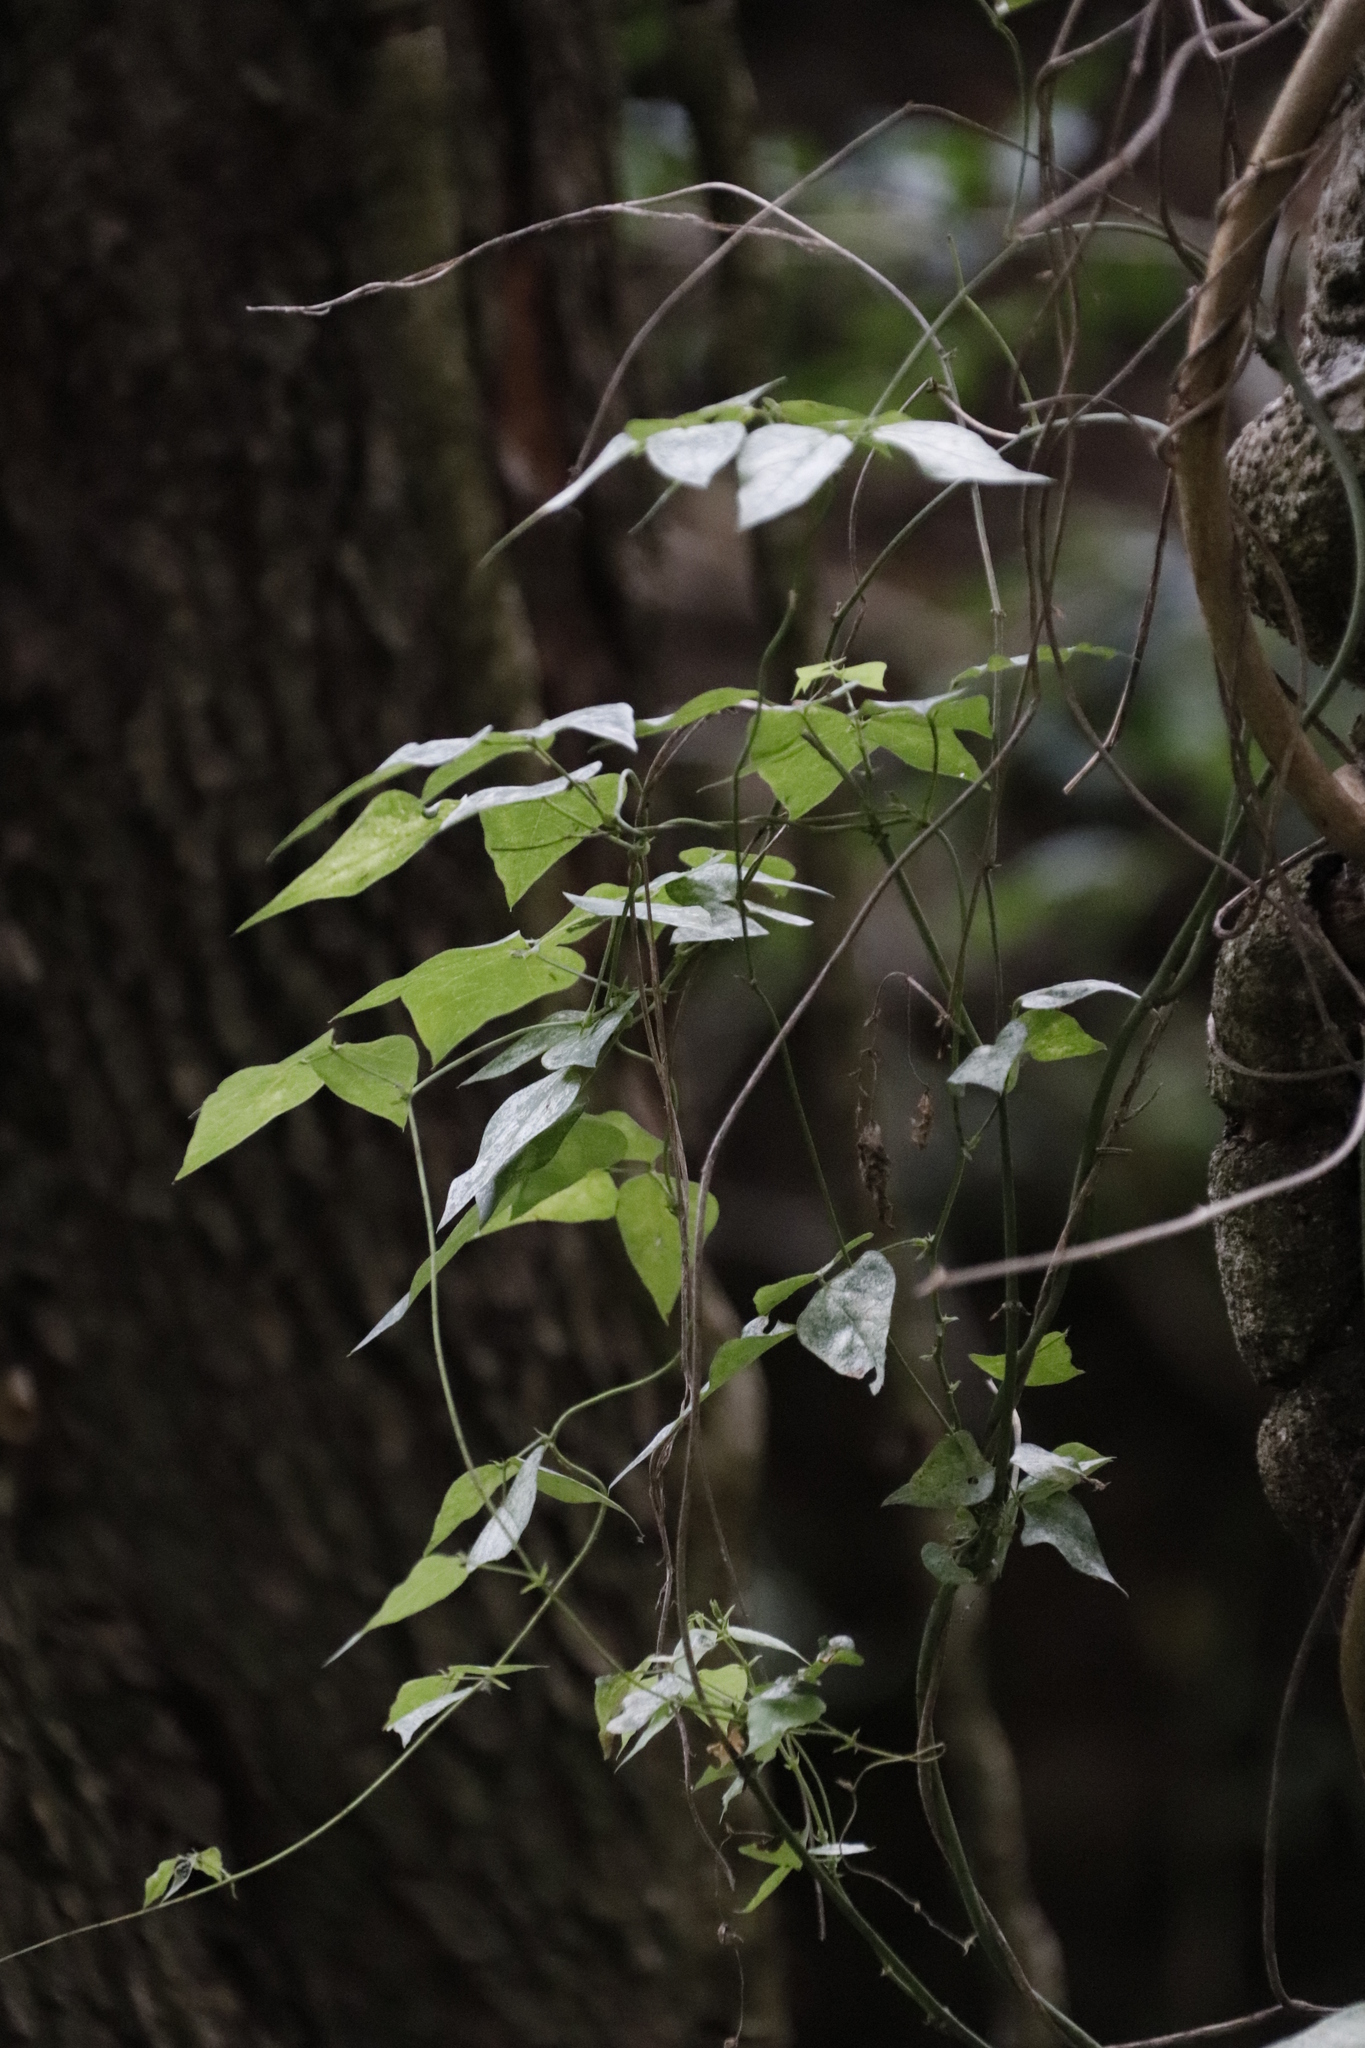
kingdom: Plantae
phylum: Tracheophyta
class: Magnoliopsida
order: Fabales
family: Fabaceae
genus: Dipogon
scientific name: Dipogon lignosus
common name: Okie bean
